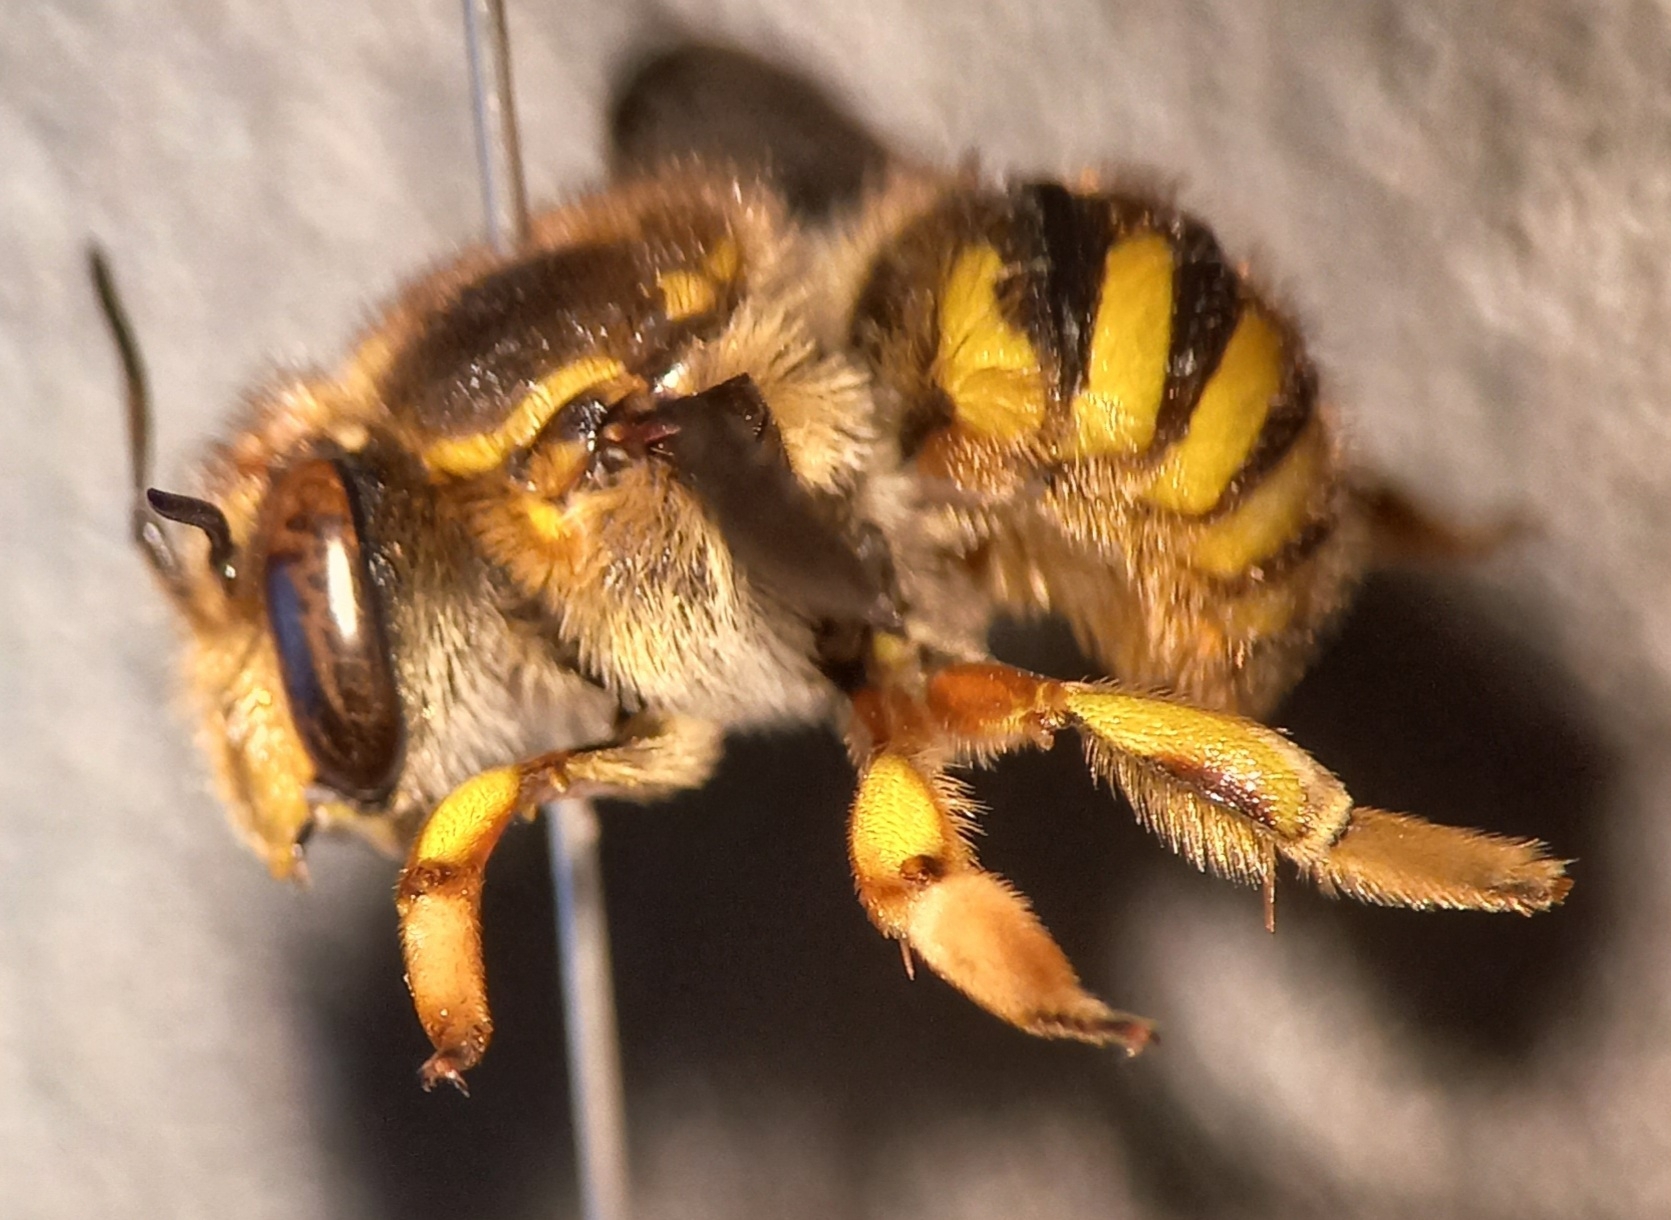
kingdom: Animalia
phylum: Arthropoda
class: Insecta
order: Hymenoptera
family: Megachilidae
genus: Anthidium
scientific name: Anthidium manicatum
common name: Wool carder bee
